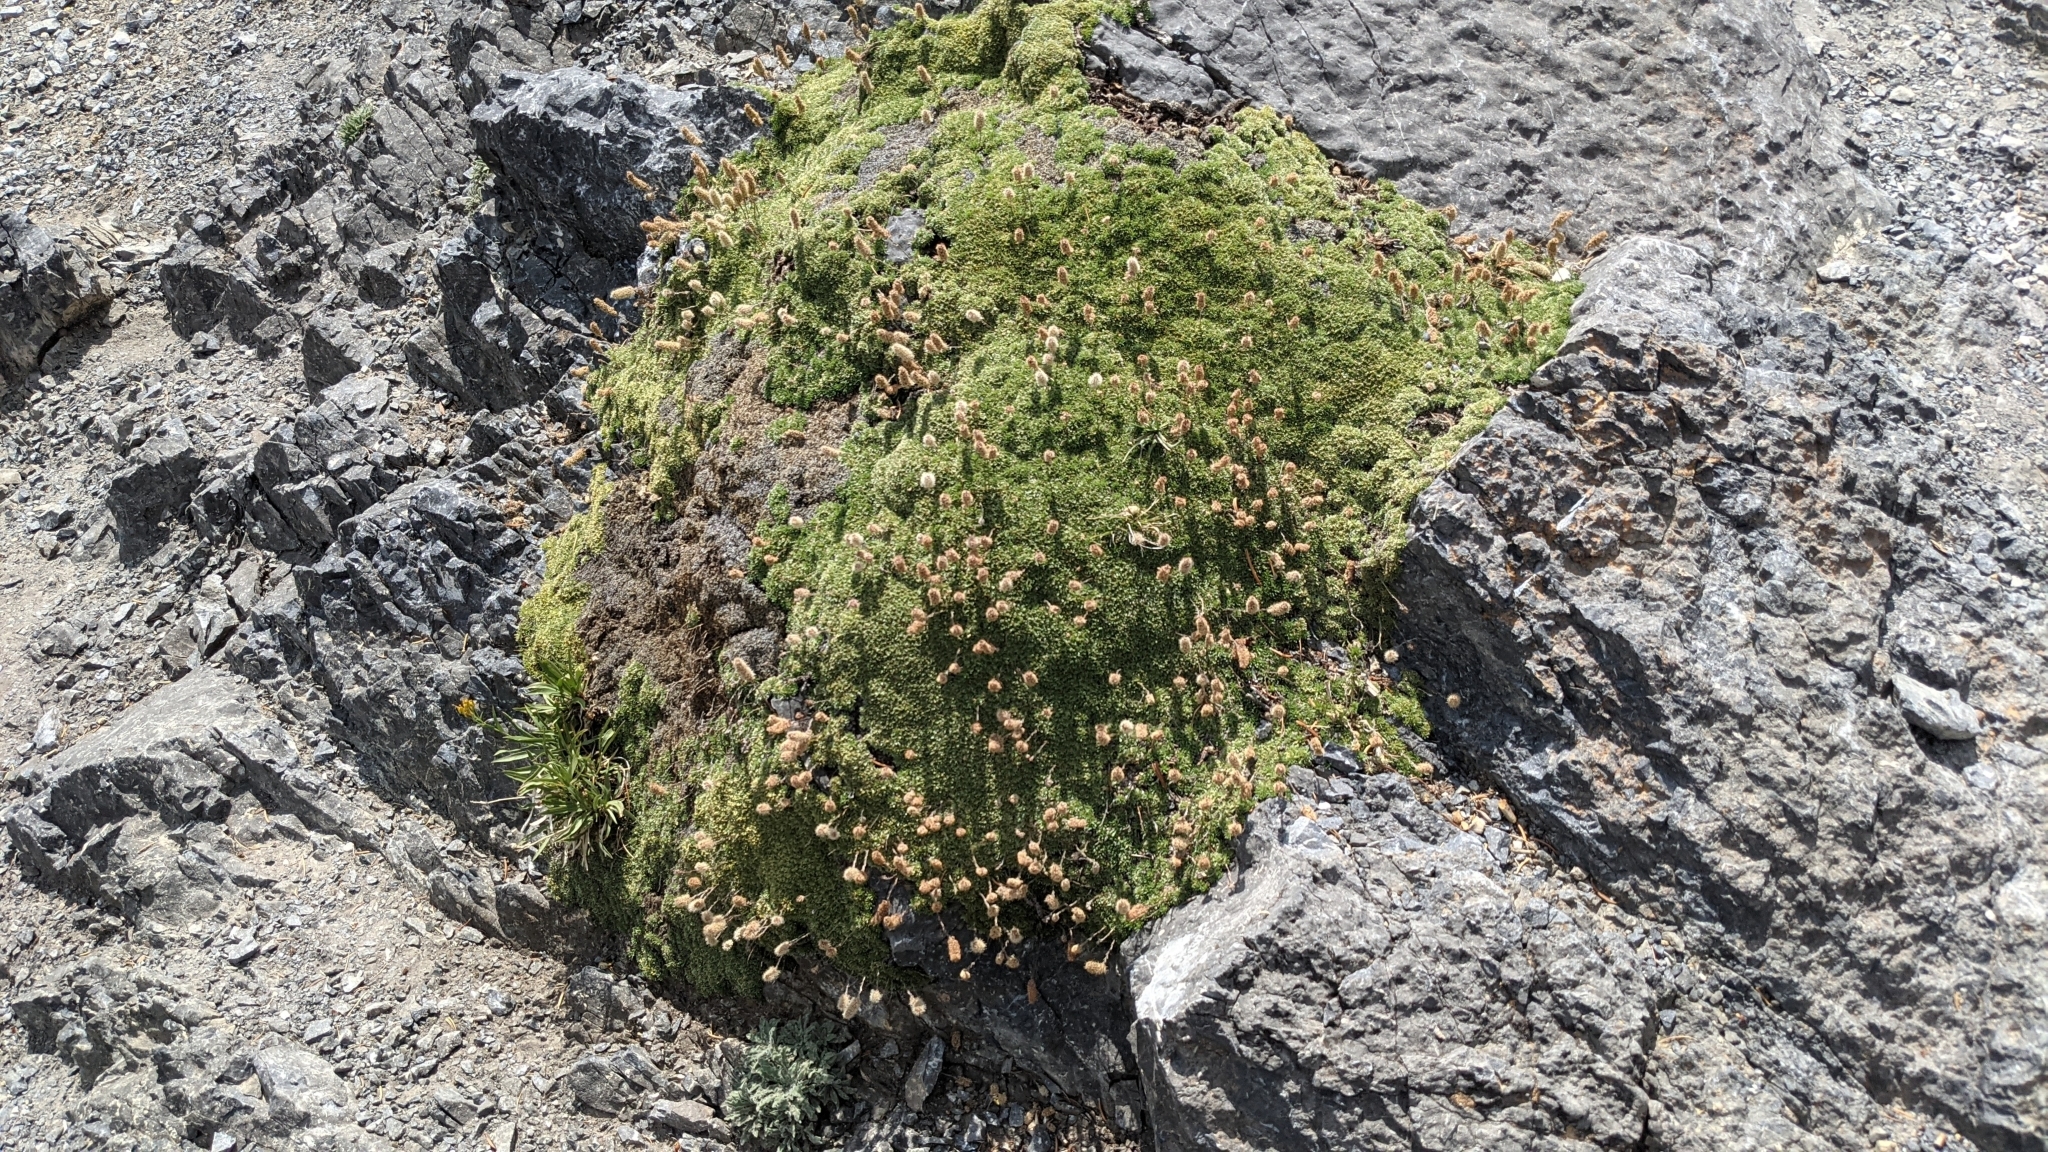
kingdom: Plantae
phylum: Tracheophyta
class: Magnoliopsida
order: Rosales
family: Rosaceae
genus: Petrophytum
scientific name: Petrophytum caespitosum
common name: Mat rockspirea
